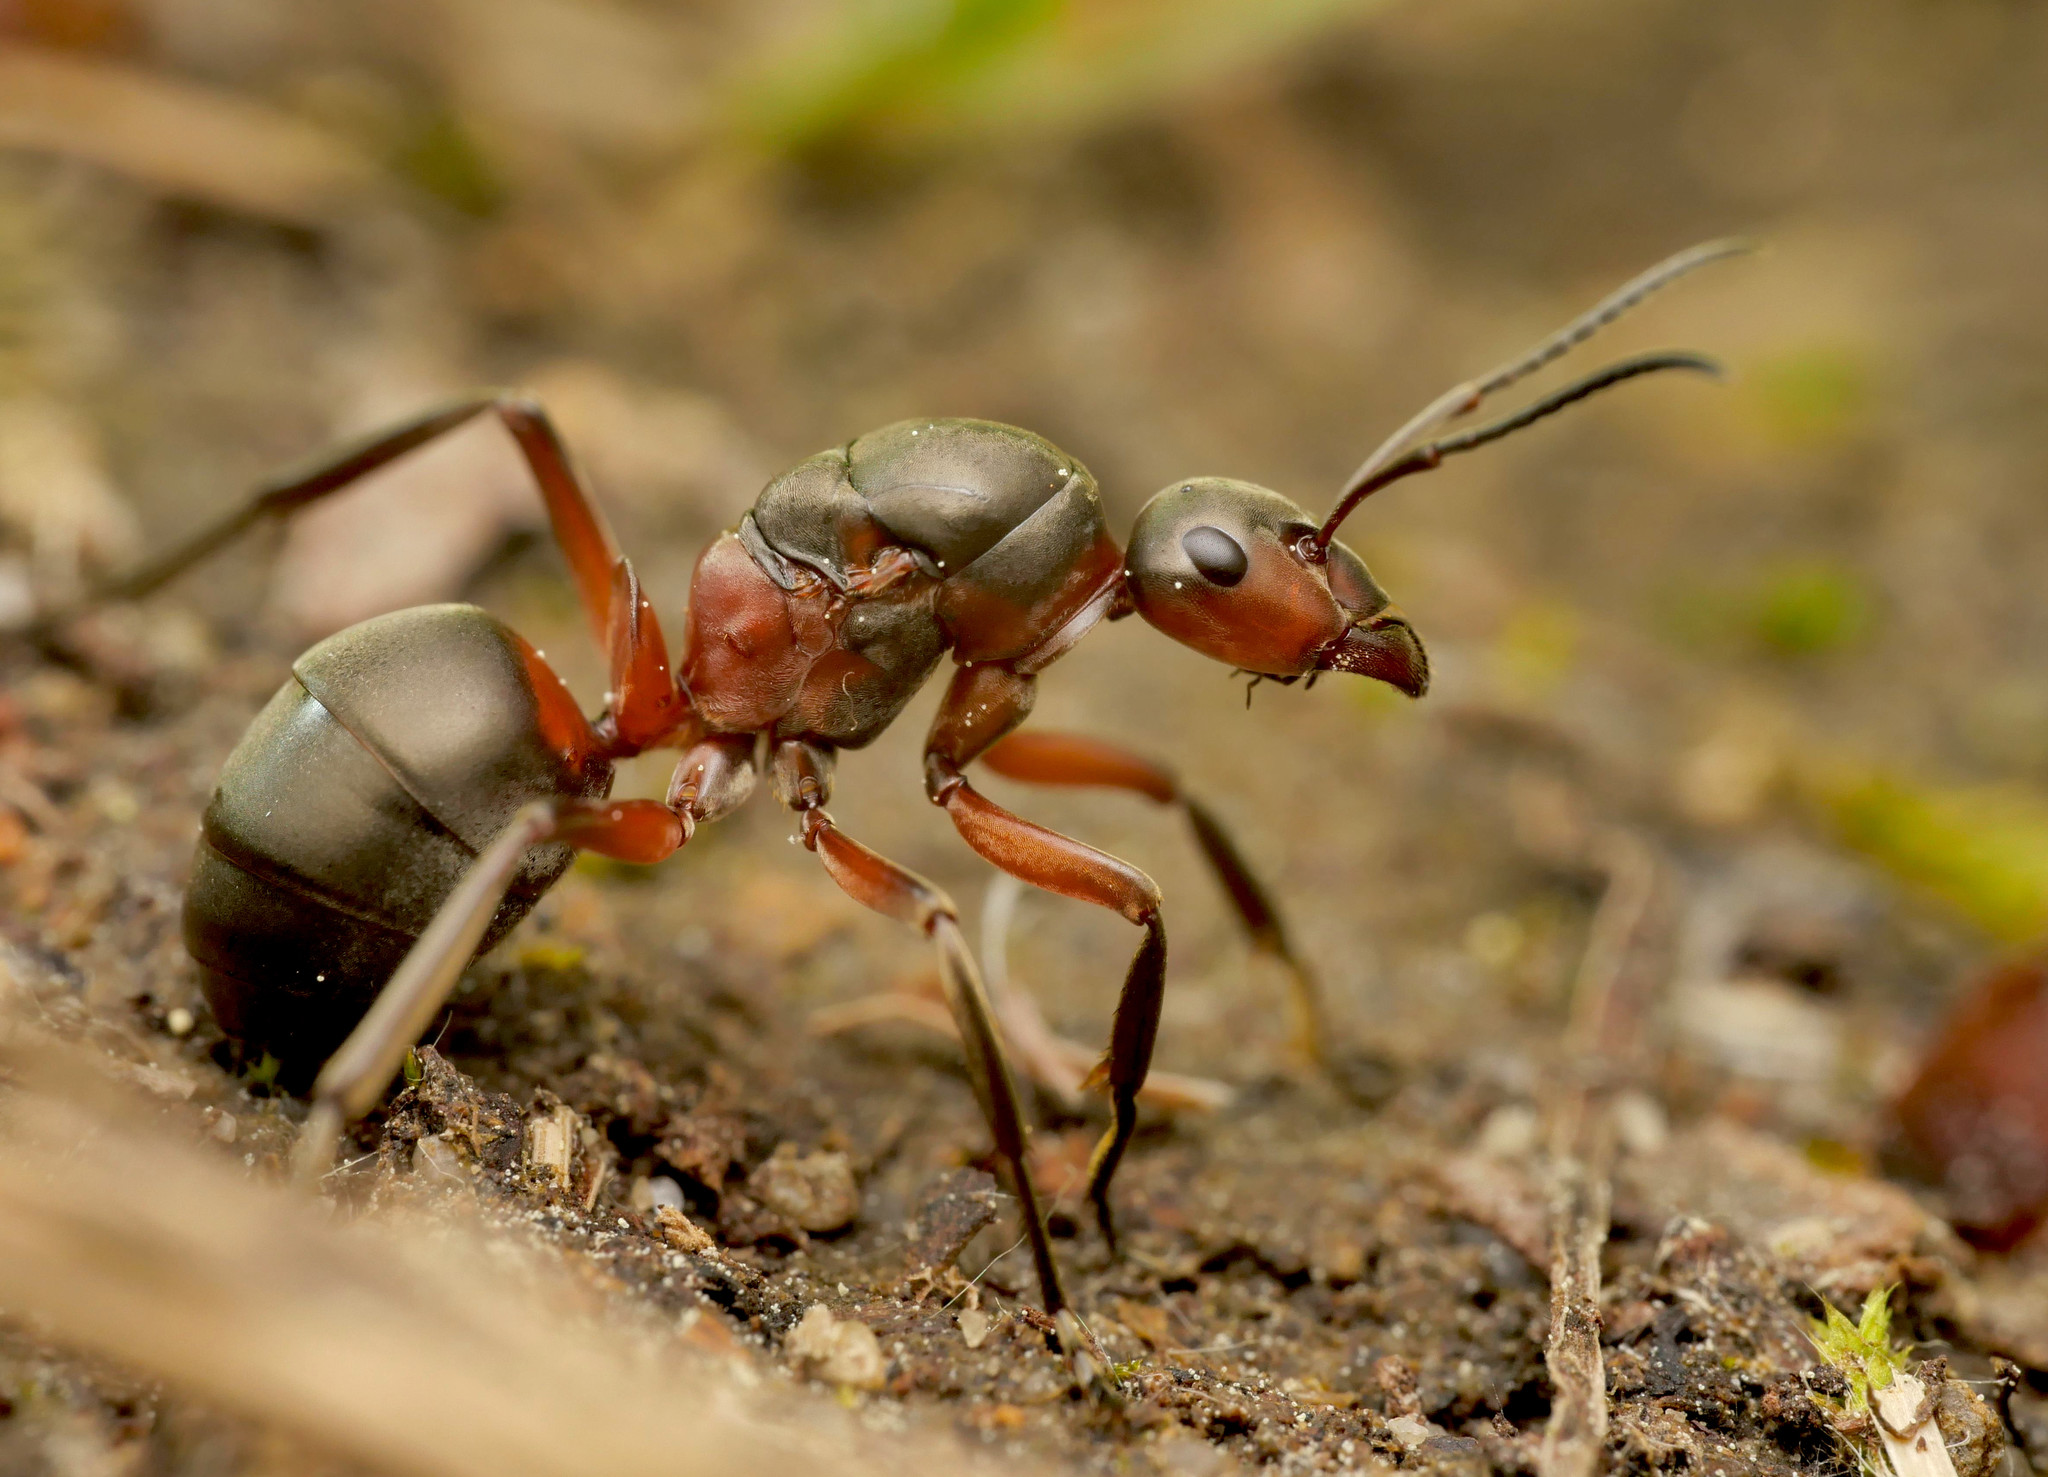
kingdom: Animalia
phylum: Arthropoda
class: Insecta
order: Hymenoptera
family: Formicidae
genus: Formica
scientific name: Formica pratensis
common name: European red wood ant
